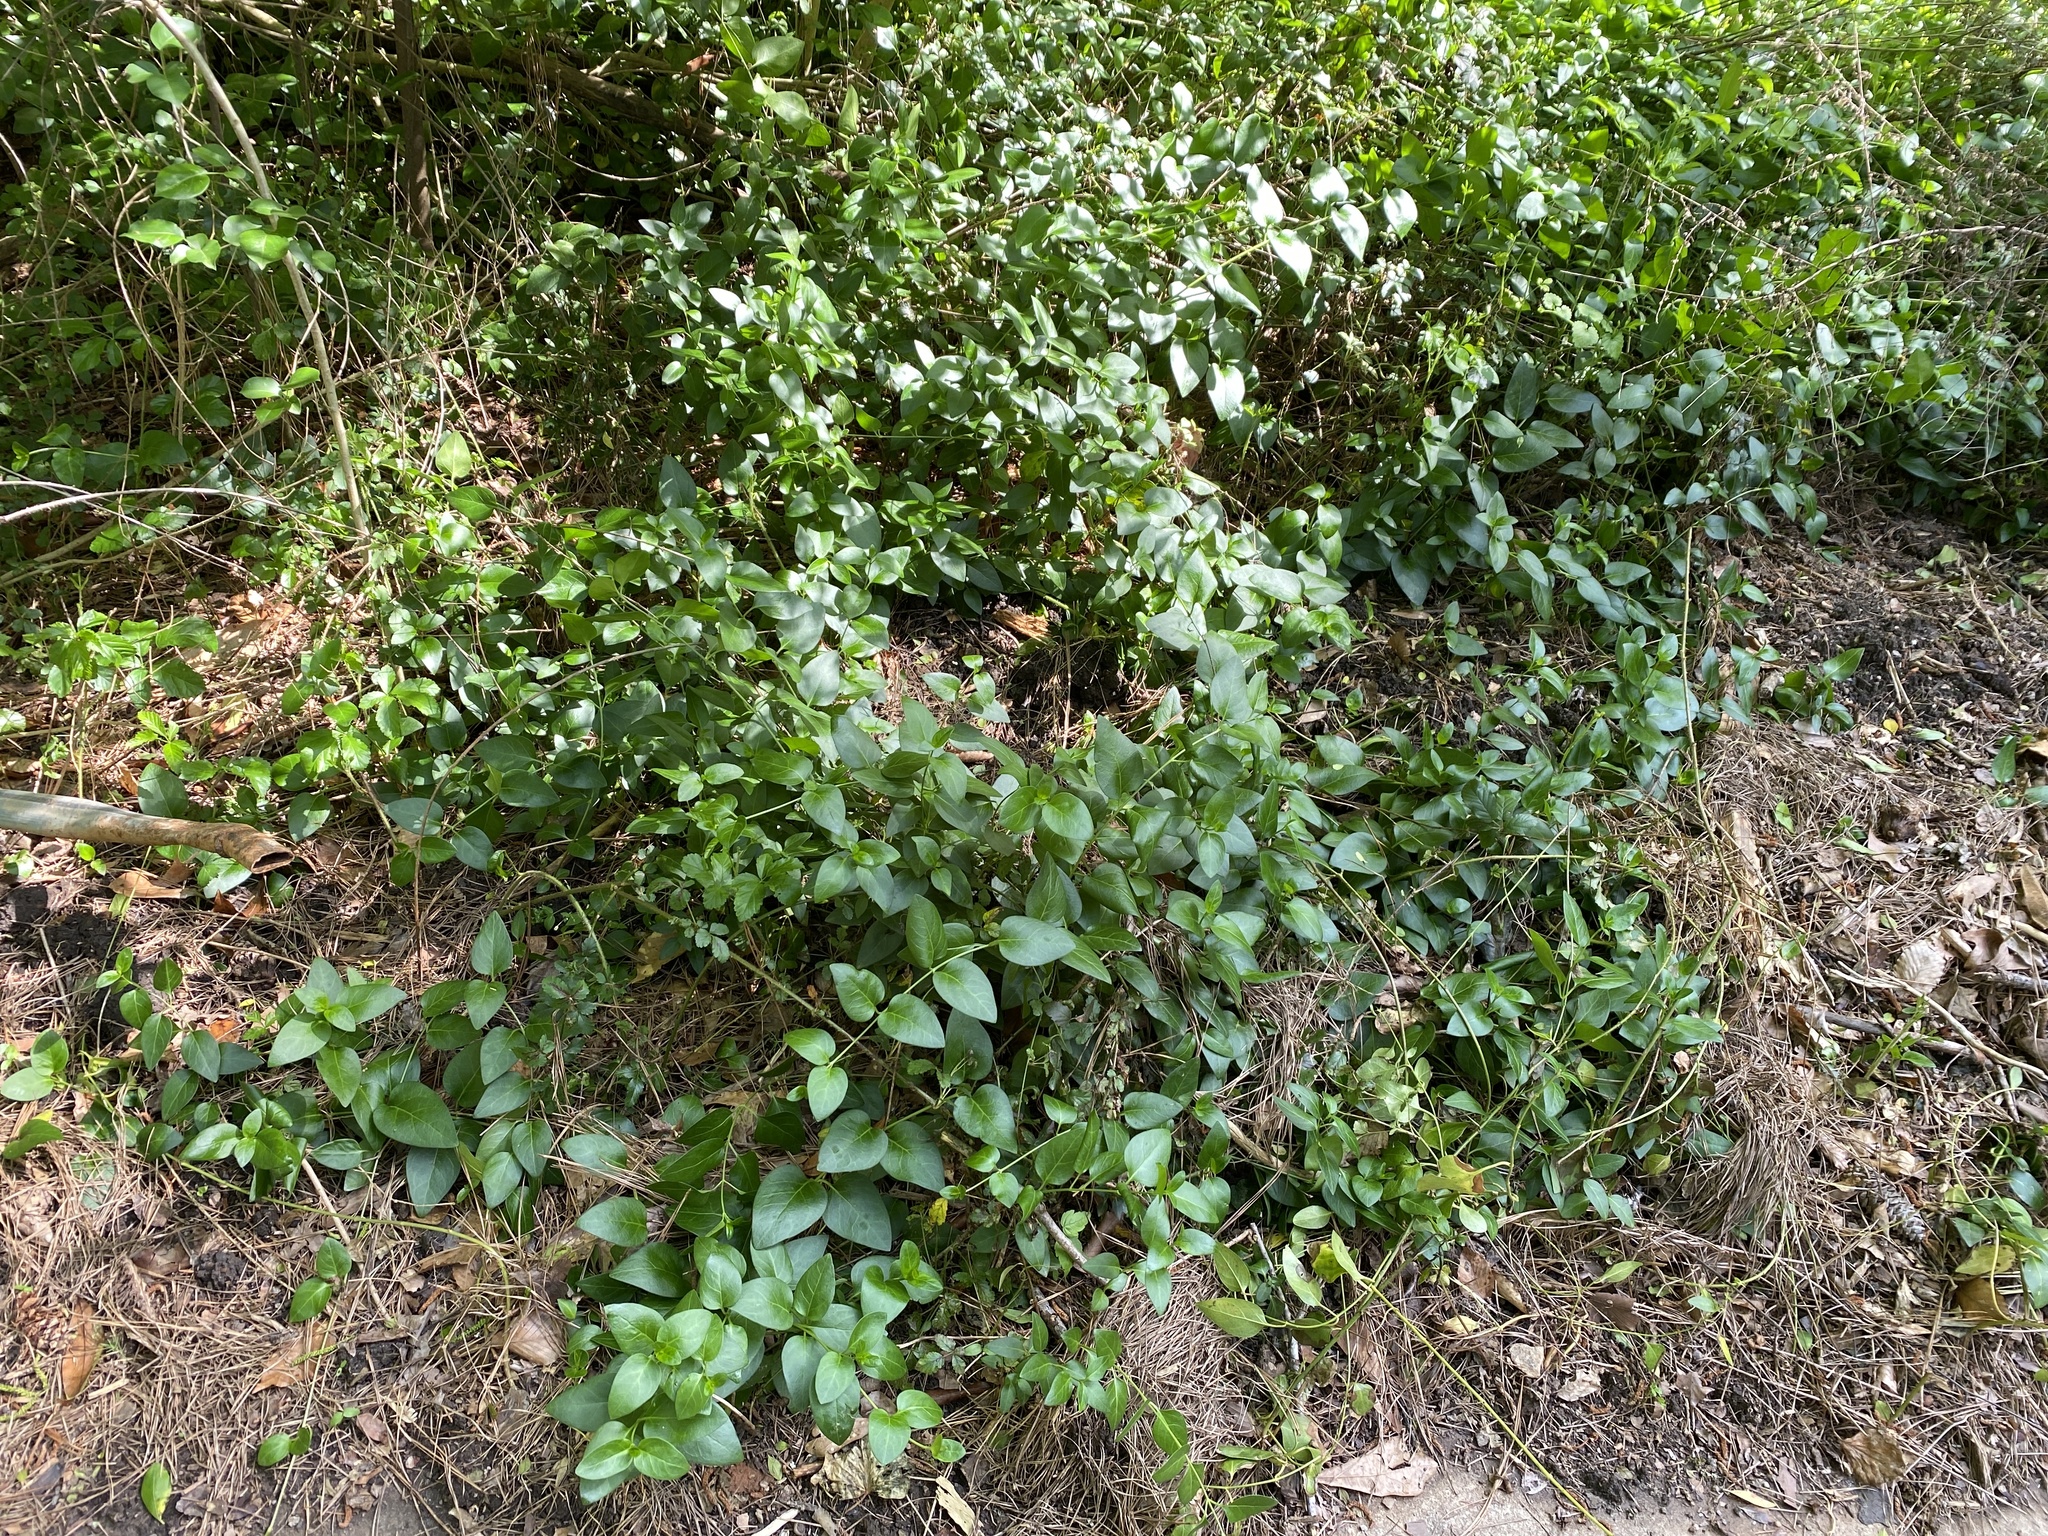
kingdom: Plantae
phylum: Tracheophyta
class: Magnoliopsida
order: Gentianales
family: Apocynaceae
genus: Vinca
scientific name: Vinca major
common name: Greater periwinkle
